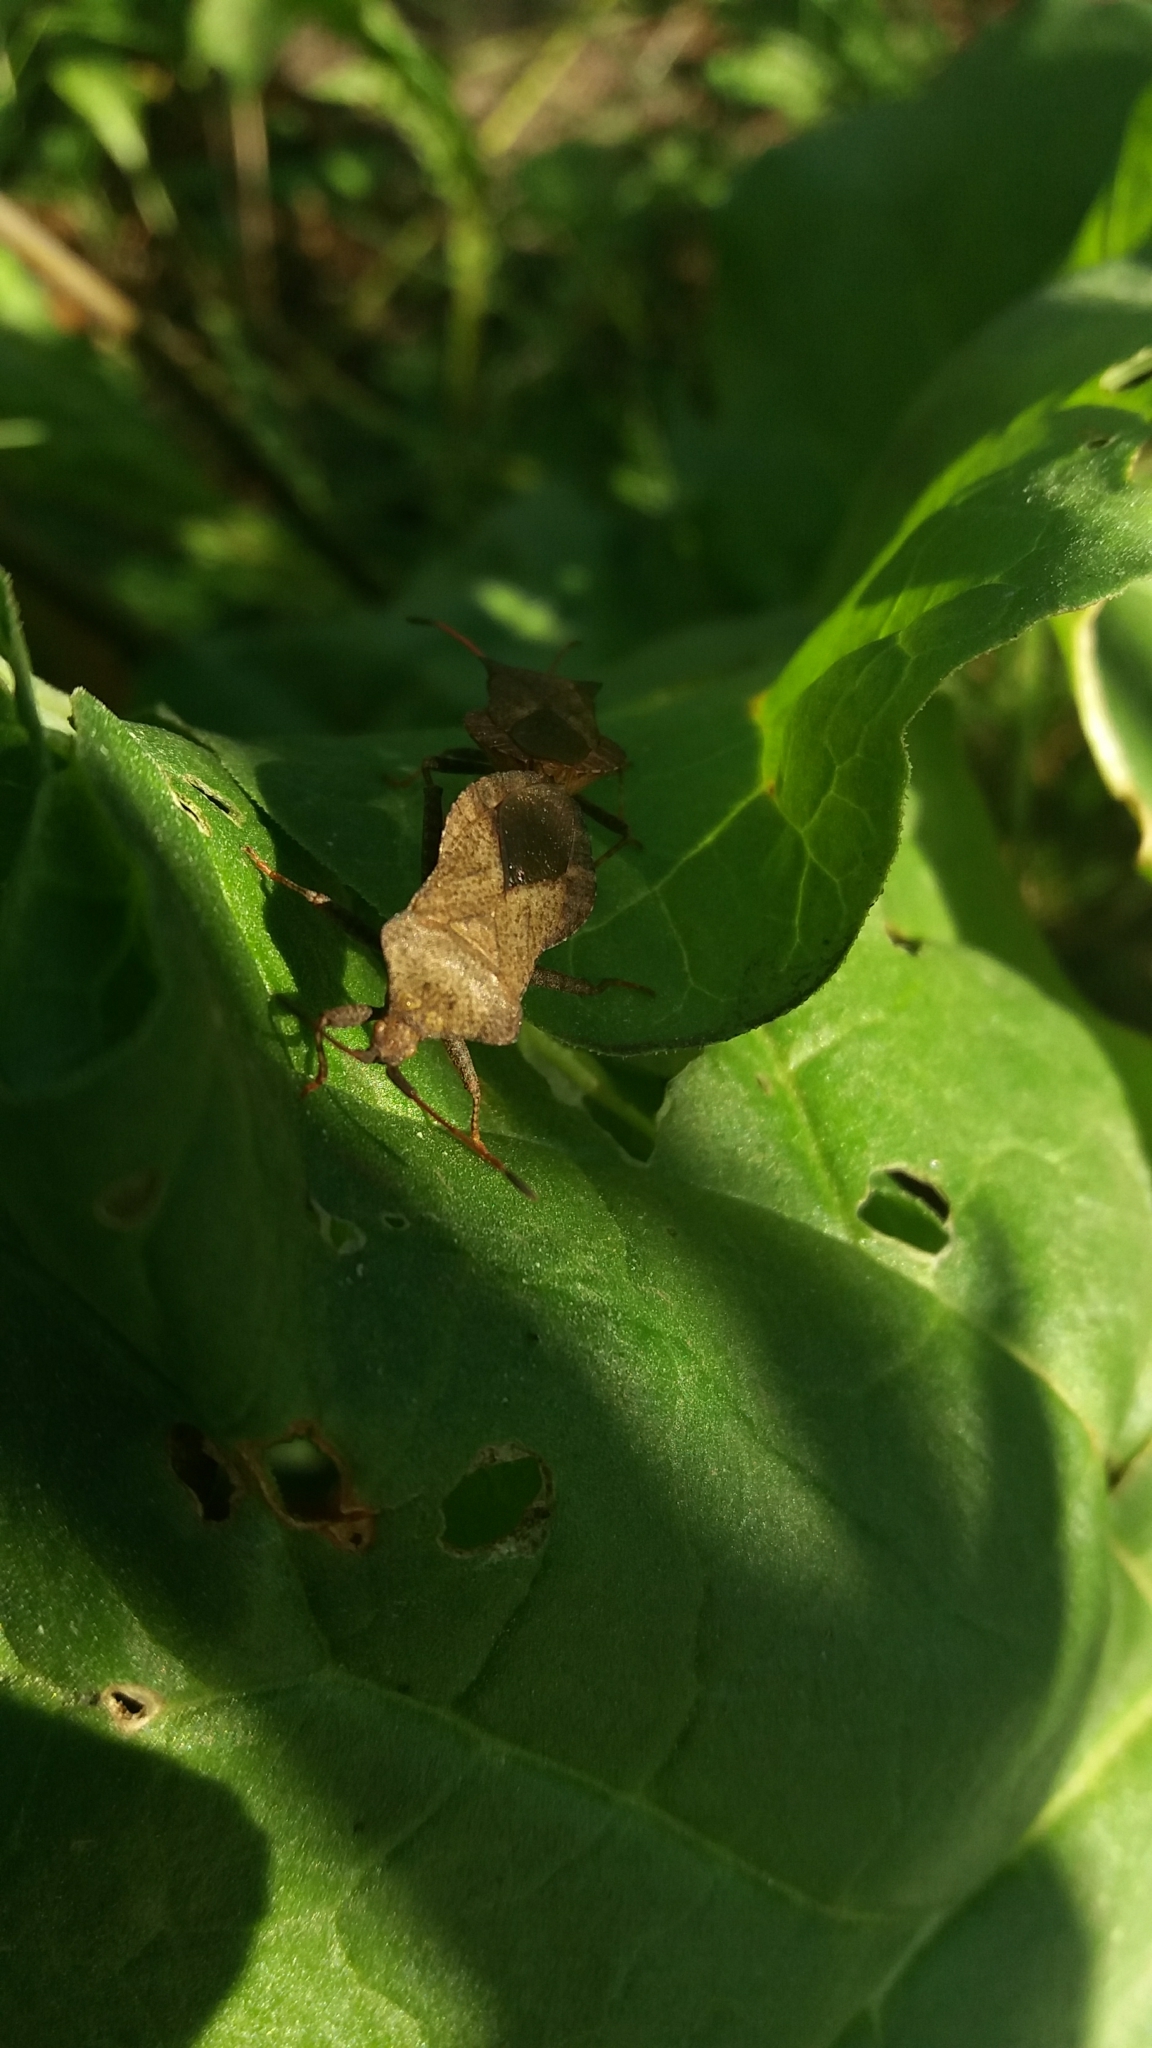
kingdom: Animalia
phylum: Arthropoda
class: Insecta
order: Hemiptera
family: Coreidae
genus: Coreus
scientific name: Coreus marginatus
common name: Dock bug
